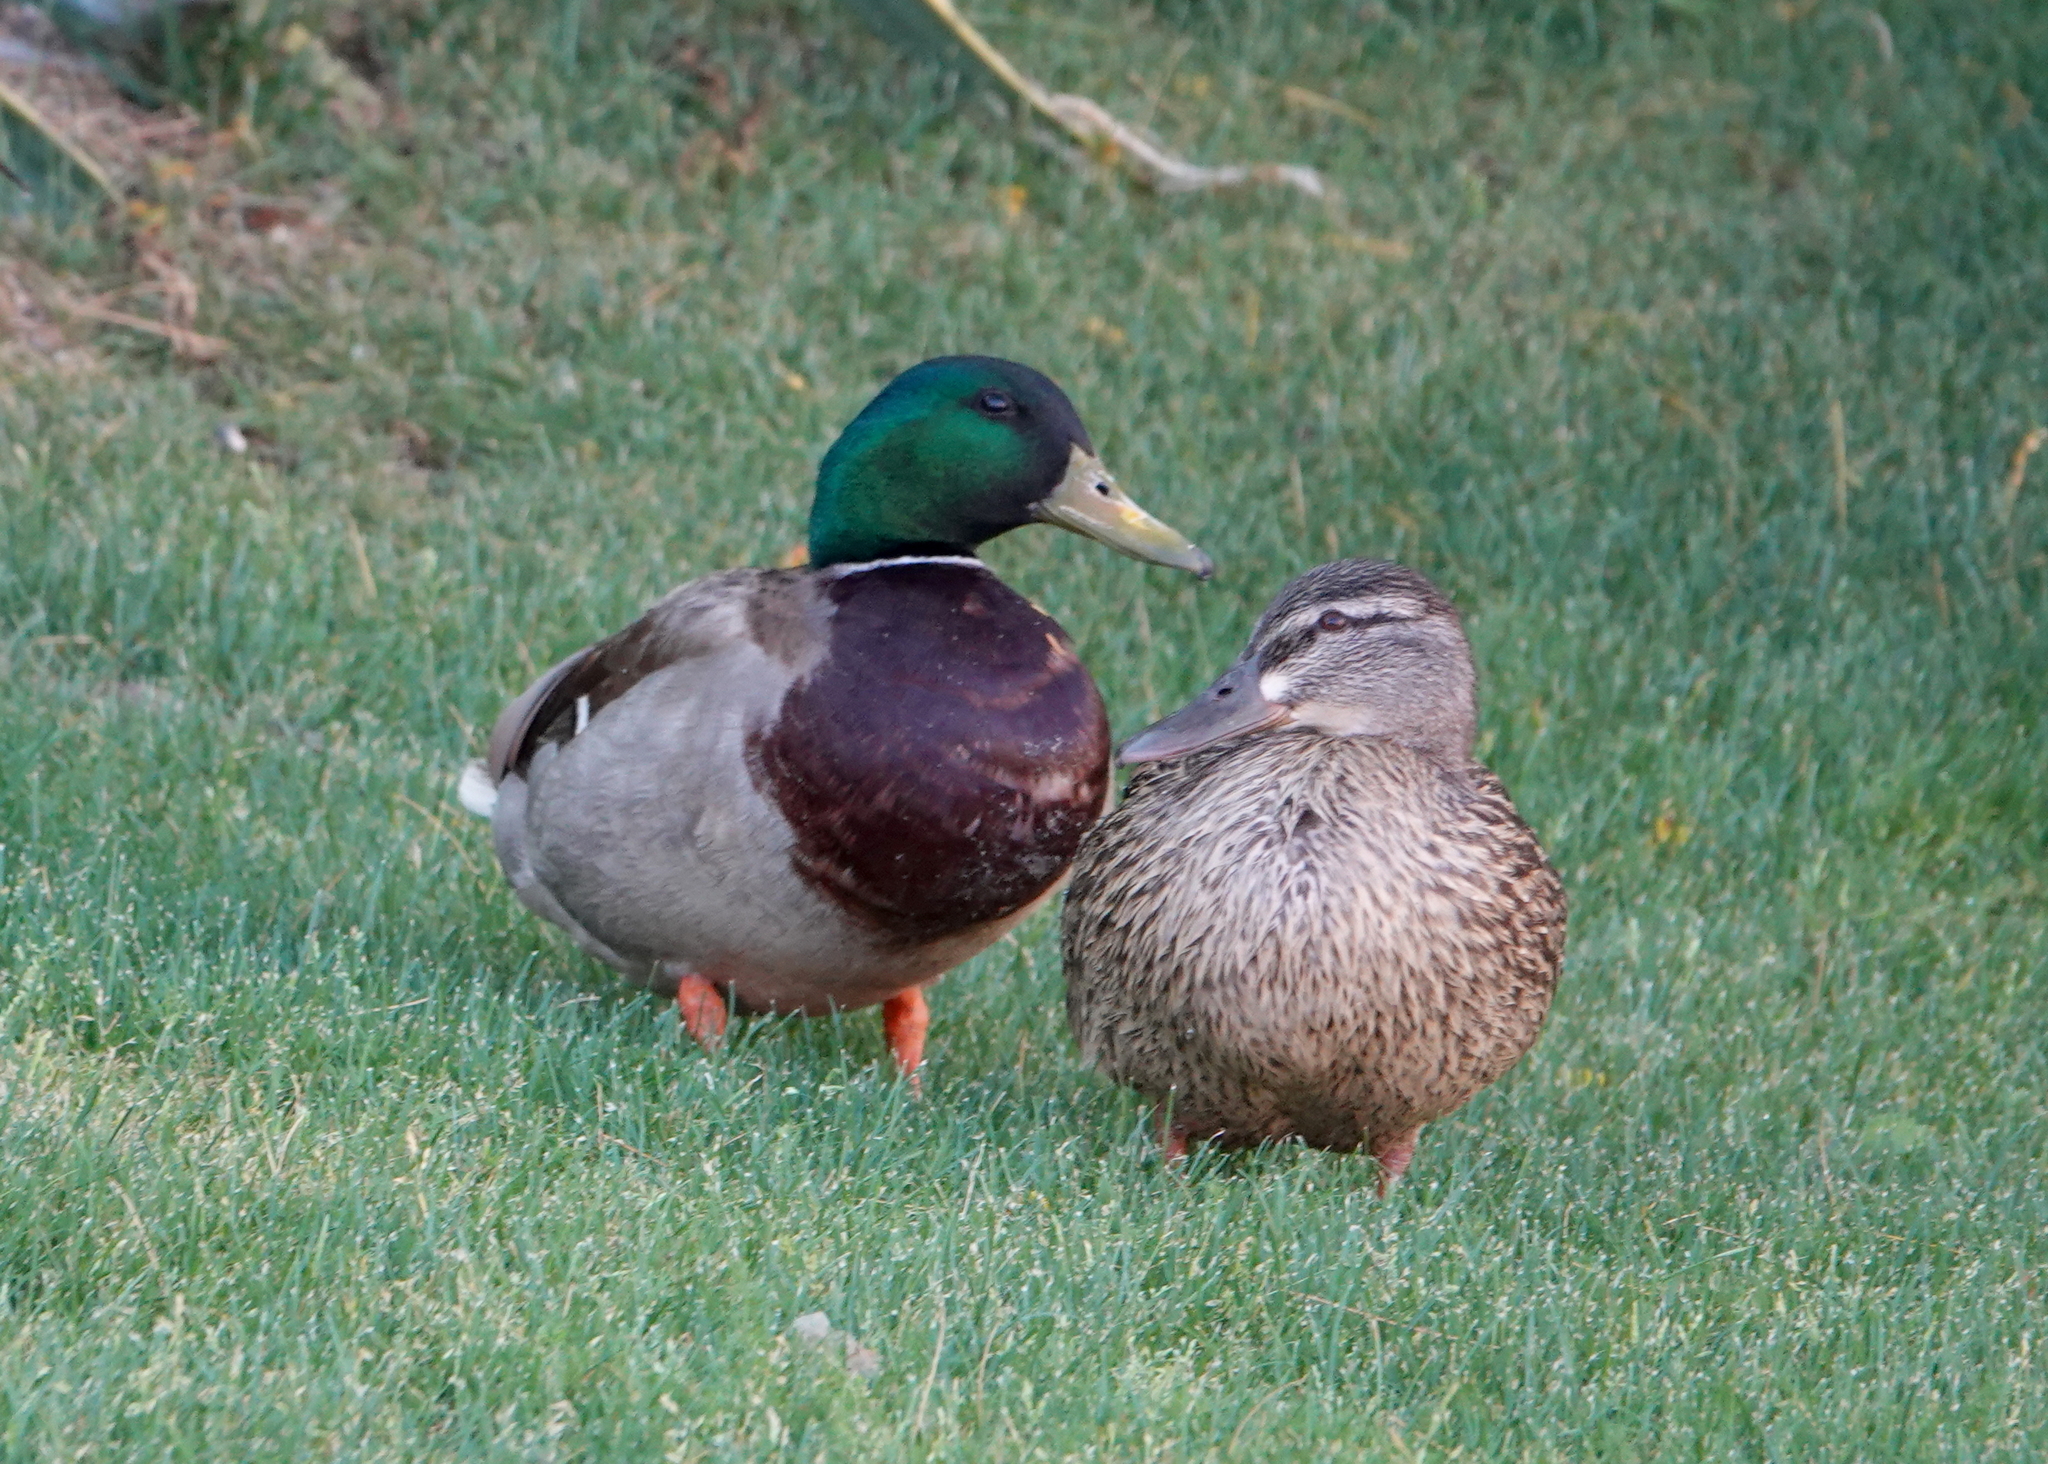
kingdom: Animalia
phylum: Chordata
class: Aves
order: Anseriformes
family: Anatidae
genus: Anas
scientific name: Anas platyrhynchos
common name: Mallard
